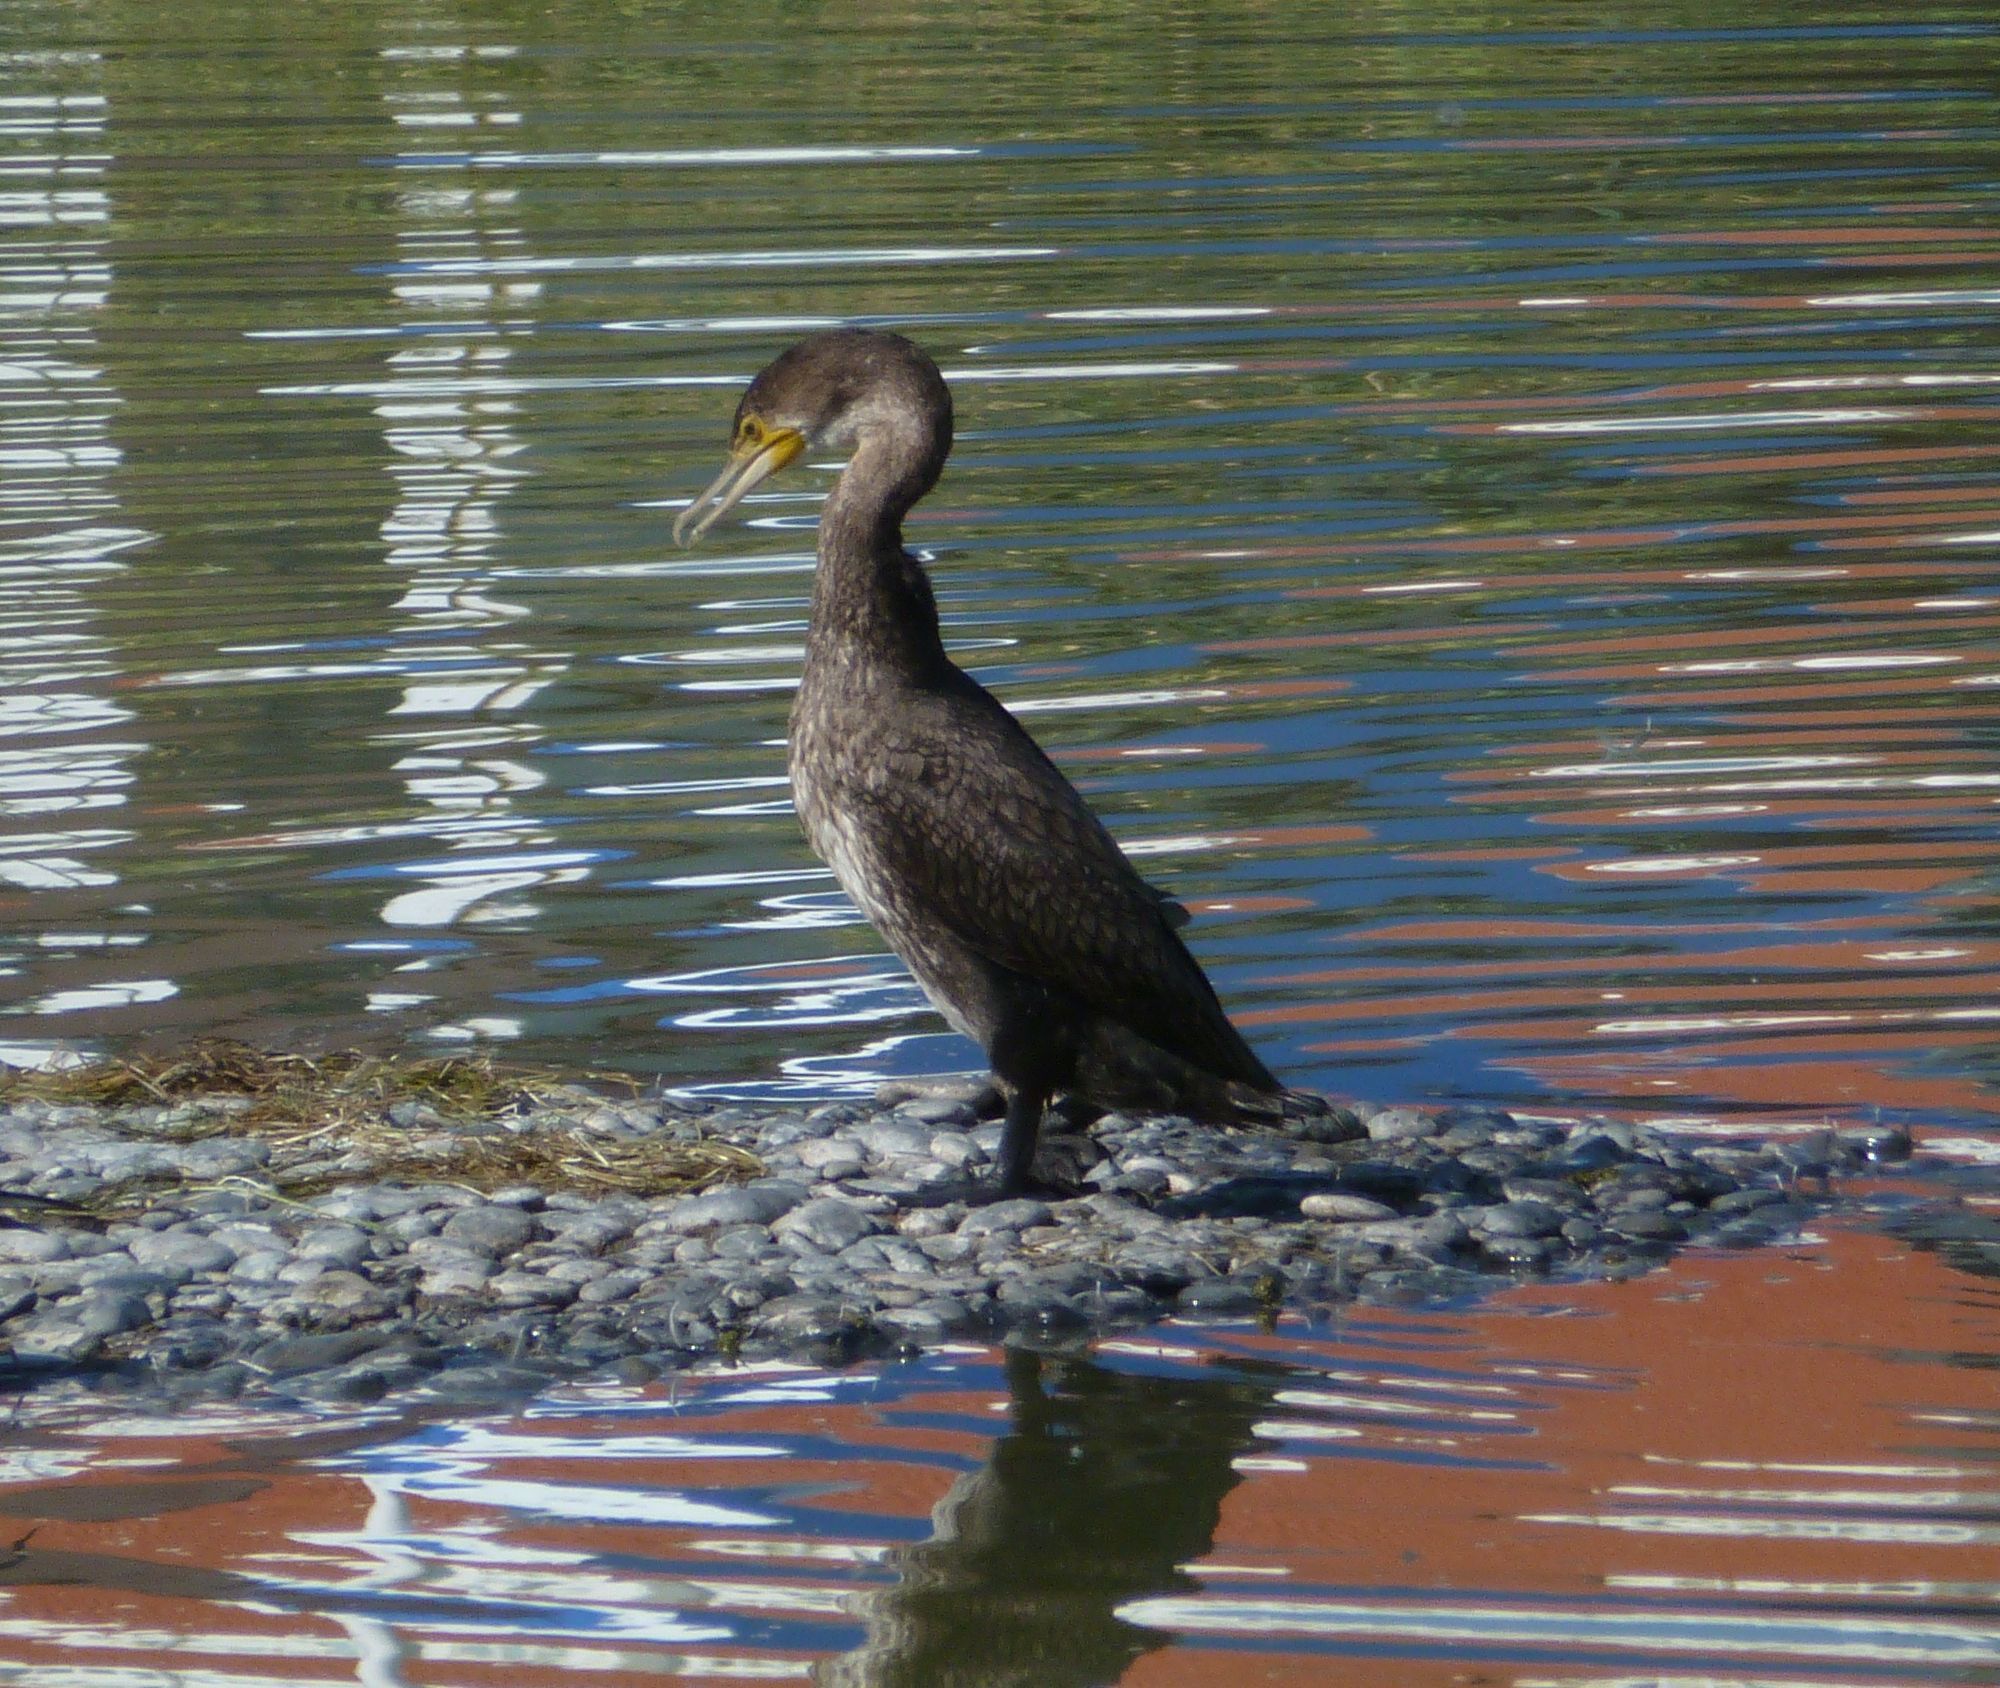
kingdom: Animalia
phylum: Chordata
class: Aves
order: Suliformes
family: Phalacrocoracidae
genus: Phalacrocorax
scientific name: Phalacrocorax carbo
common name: Great cormorant
